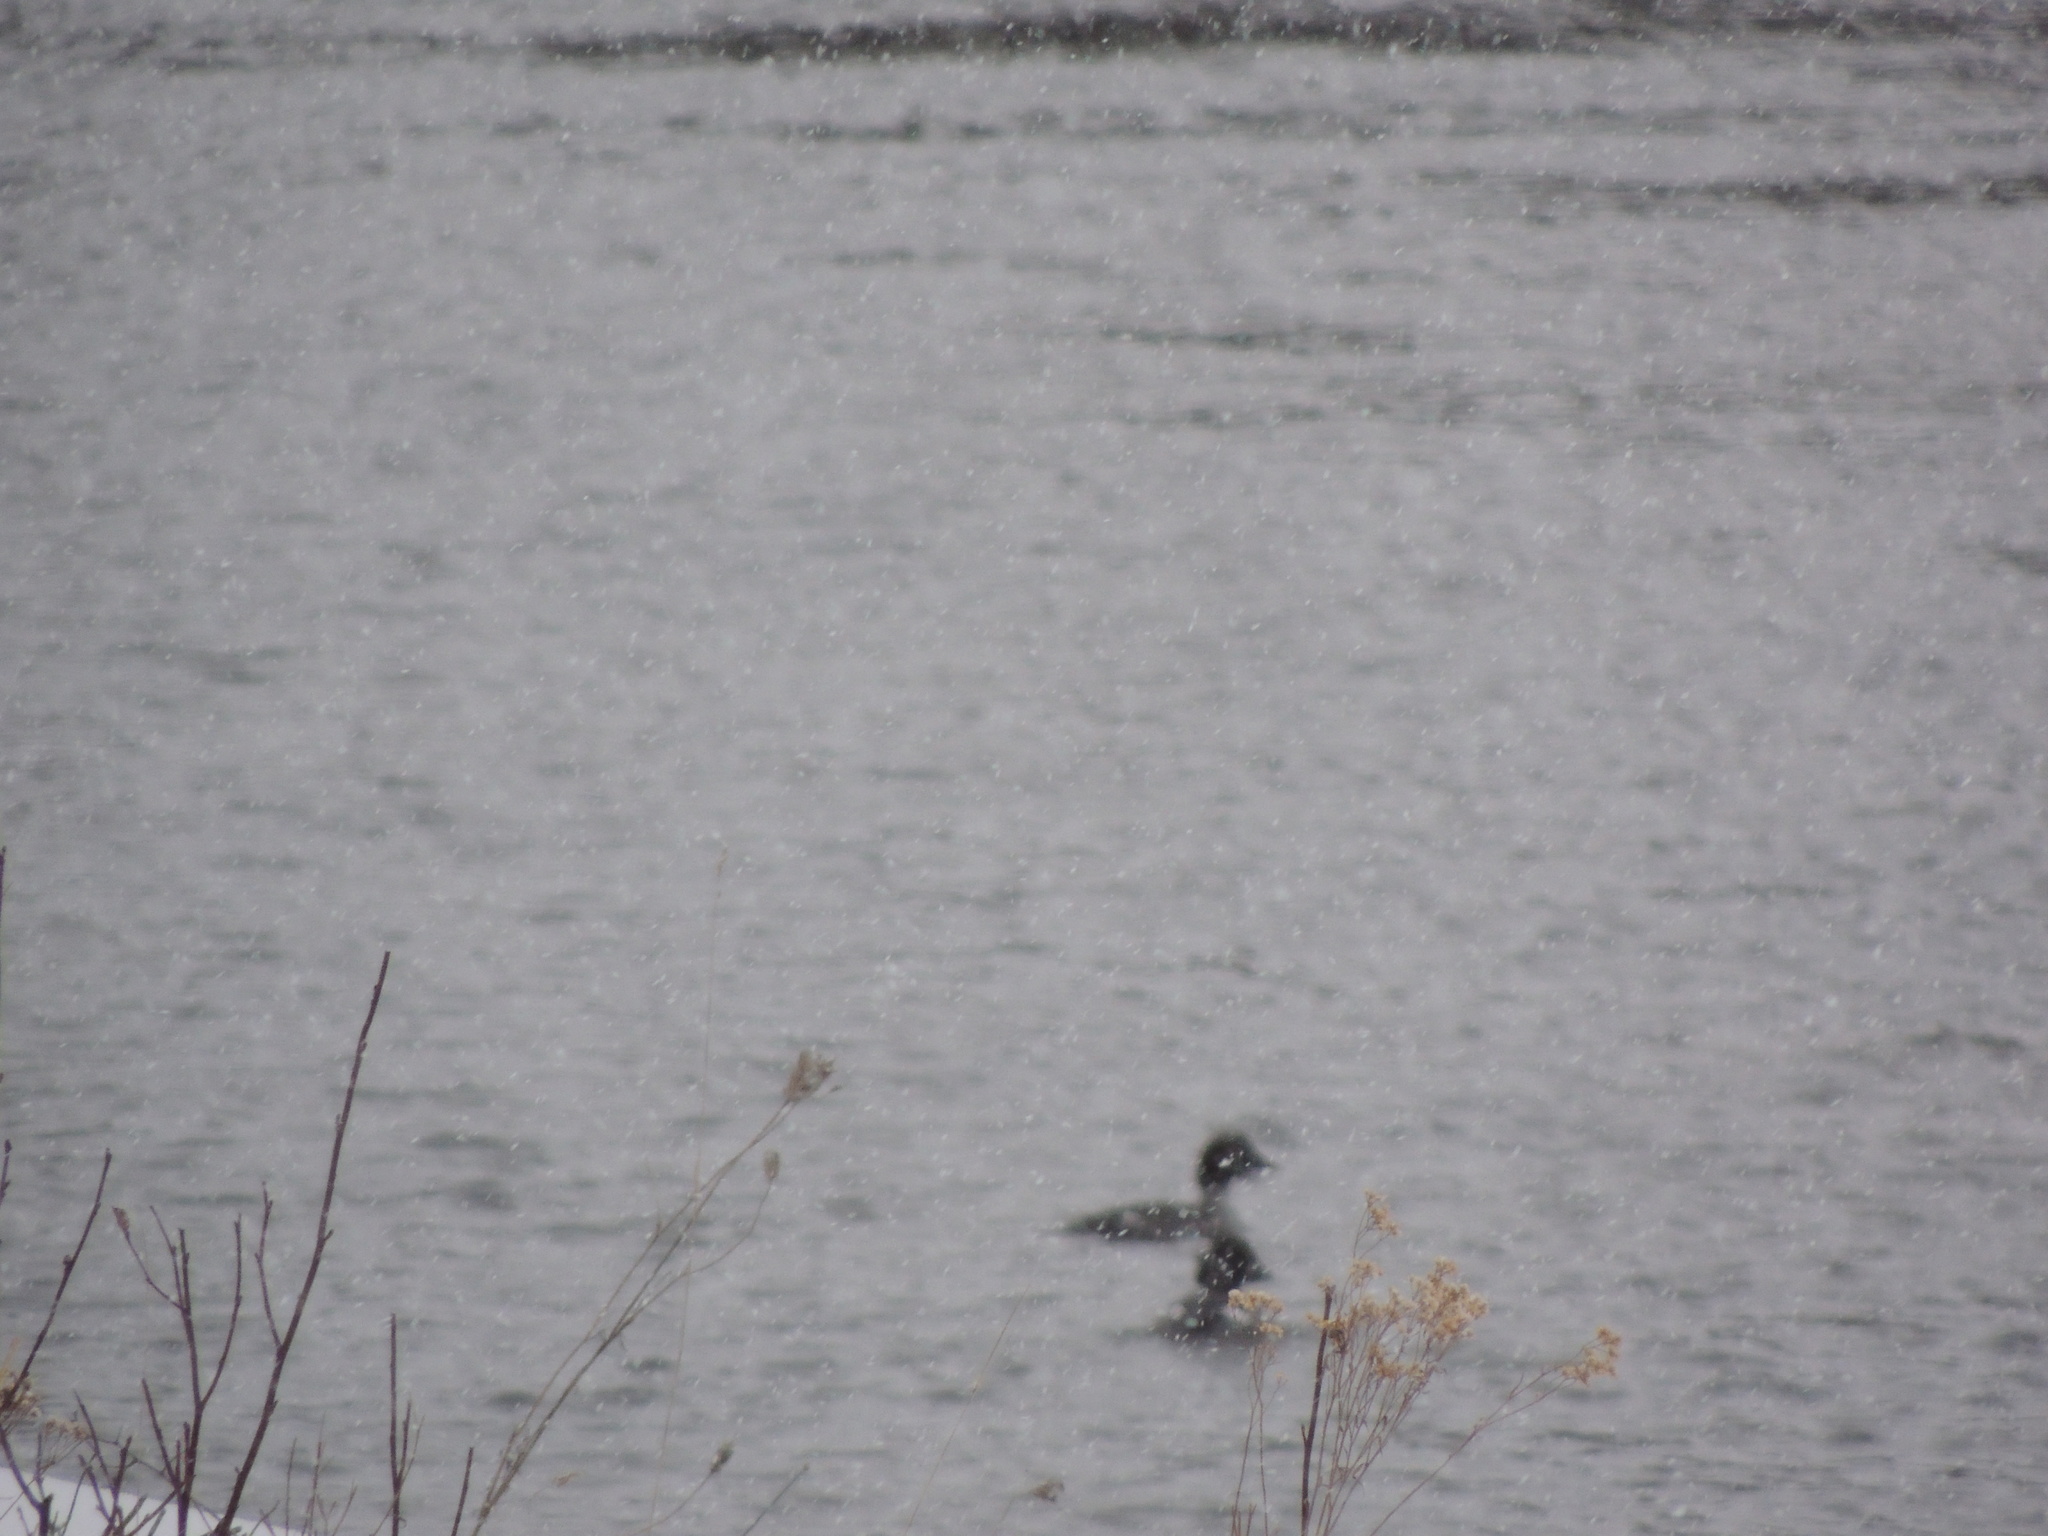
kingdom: Animalia
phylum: Chordata
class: Aves
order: Anseriformes
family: Anatidae
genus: Bucephala
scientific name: Bucephala clangula
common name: Common goldeneye
